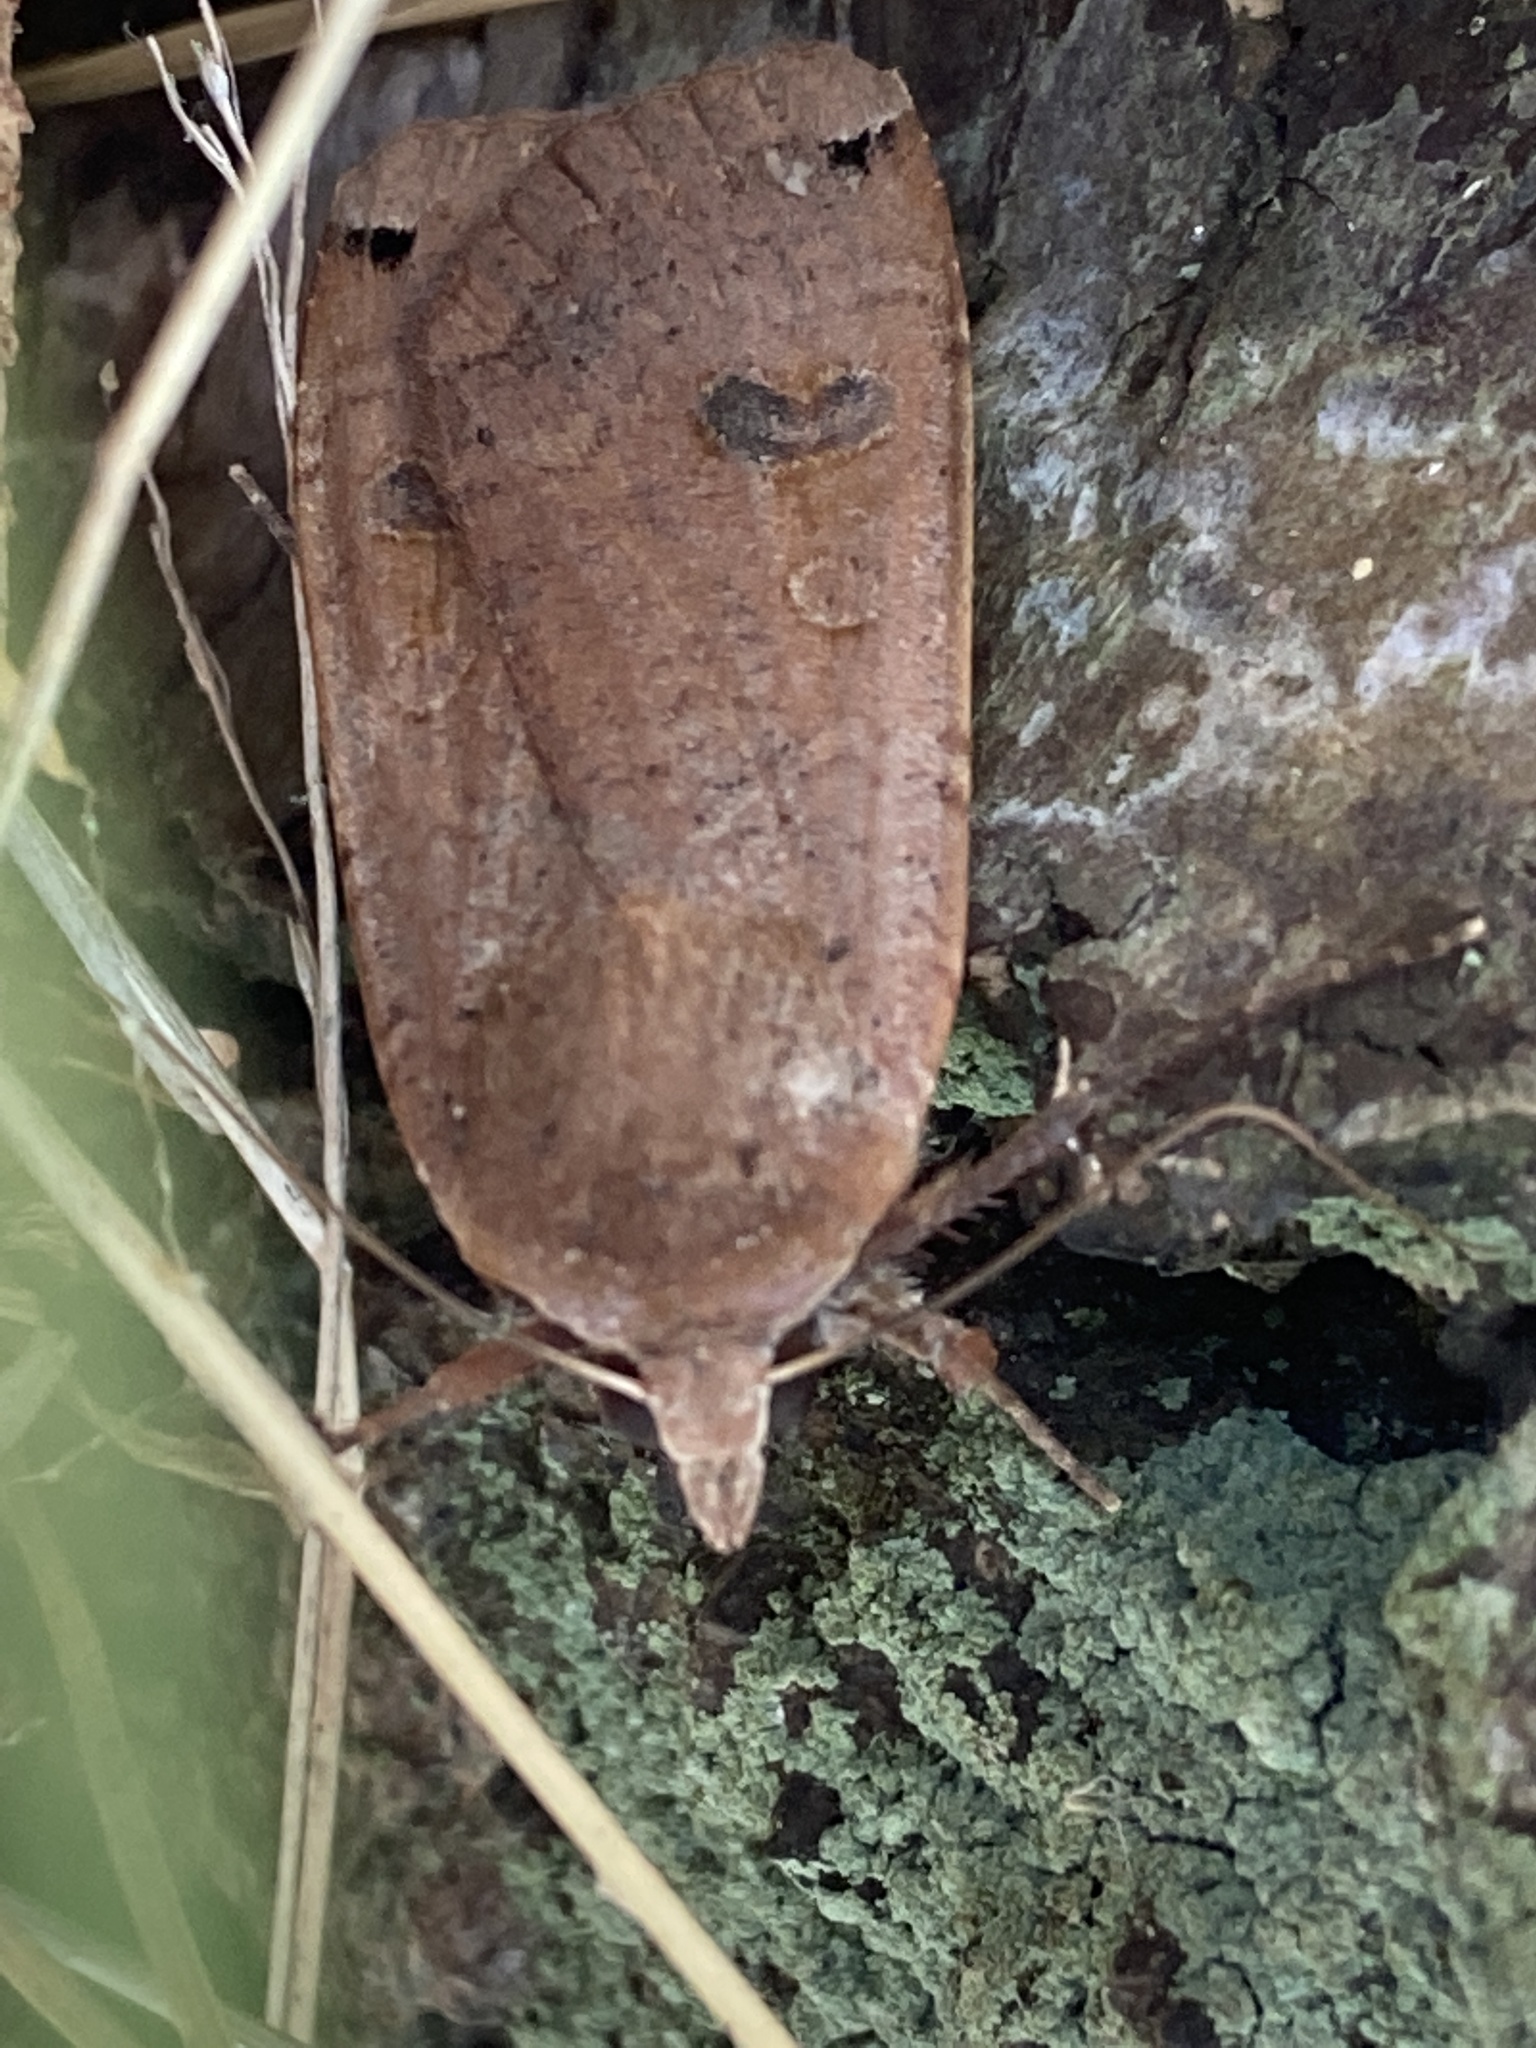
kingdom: Animalia
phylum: Arthropoda
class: Insecta
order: Lepidoptera
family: Noctuidae
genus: Noctua
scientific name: Noctua pronuba
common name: Large yellow underwing
